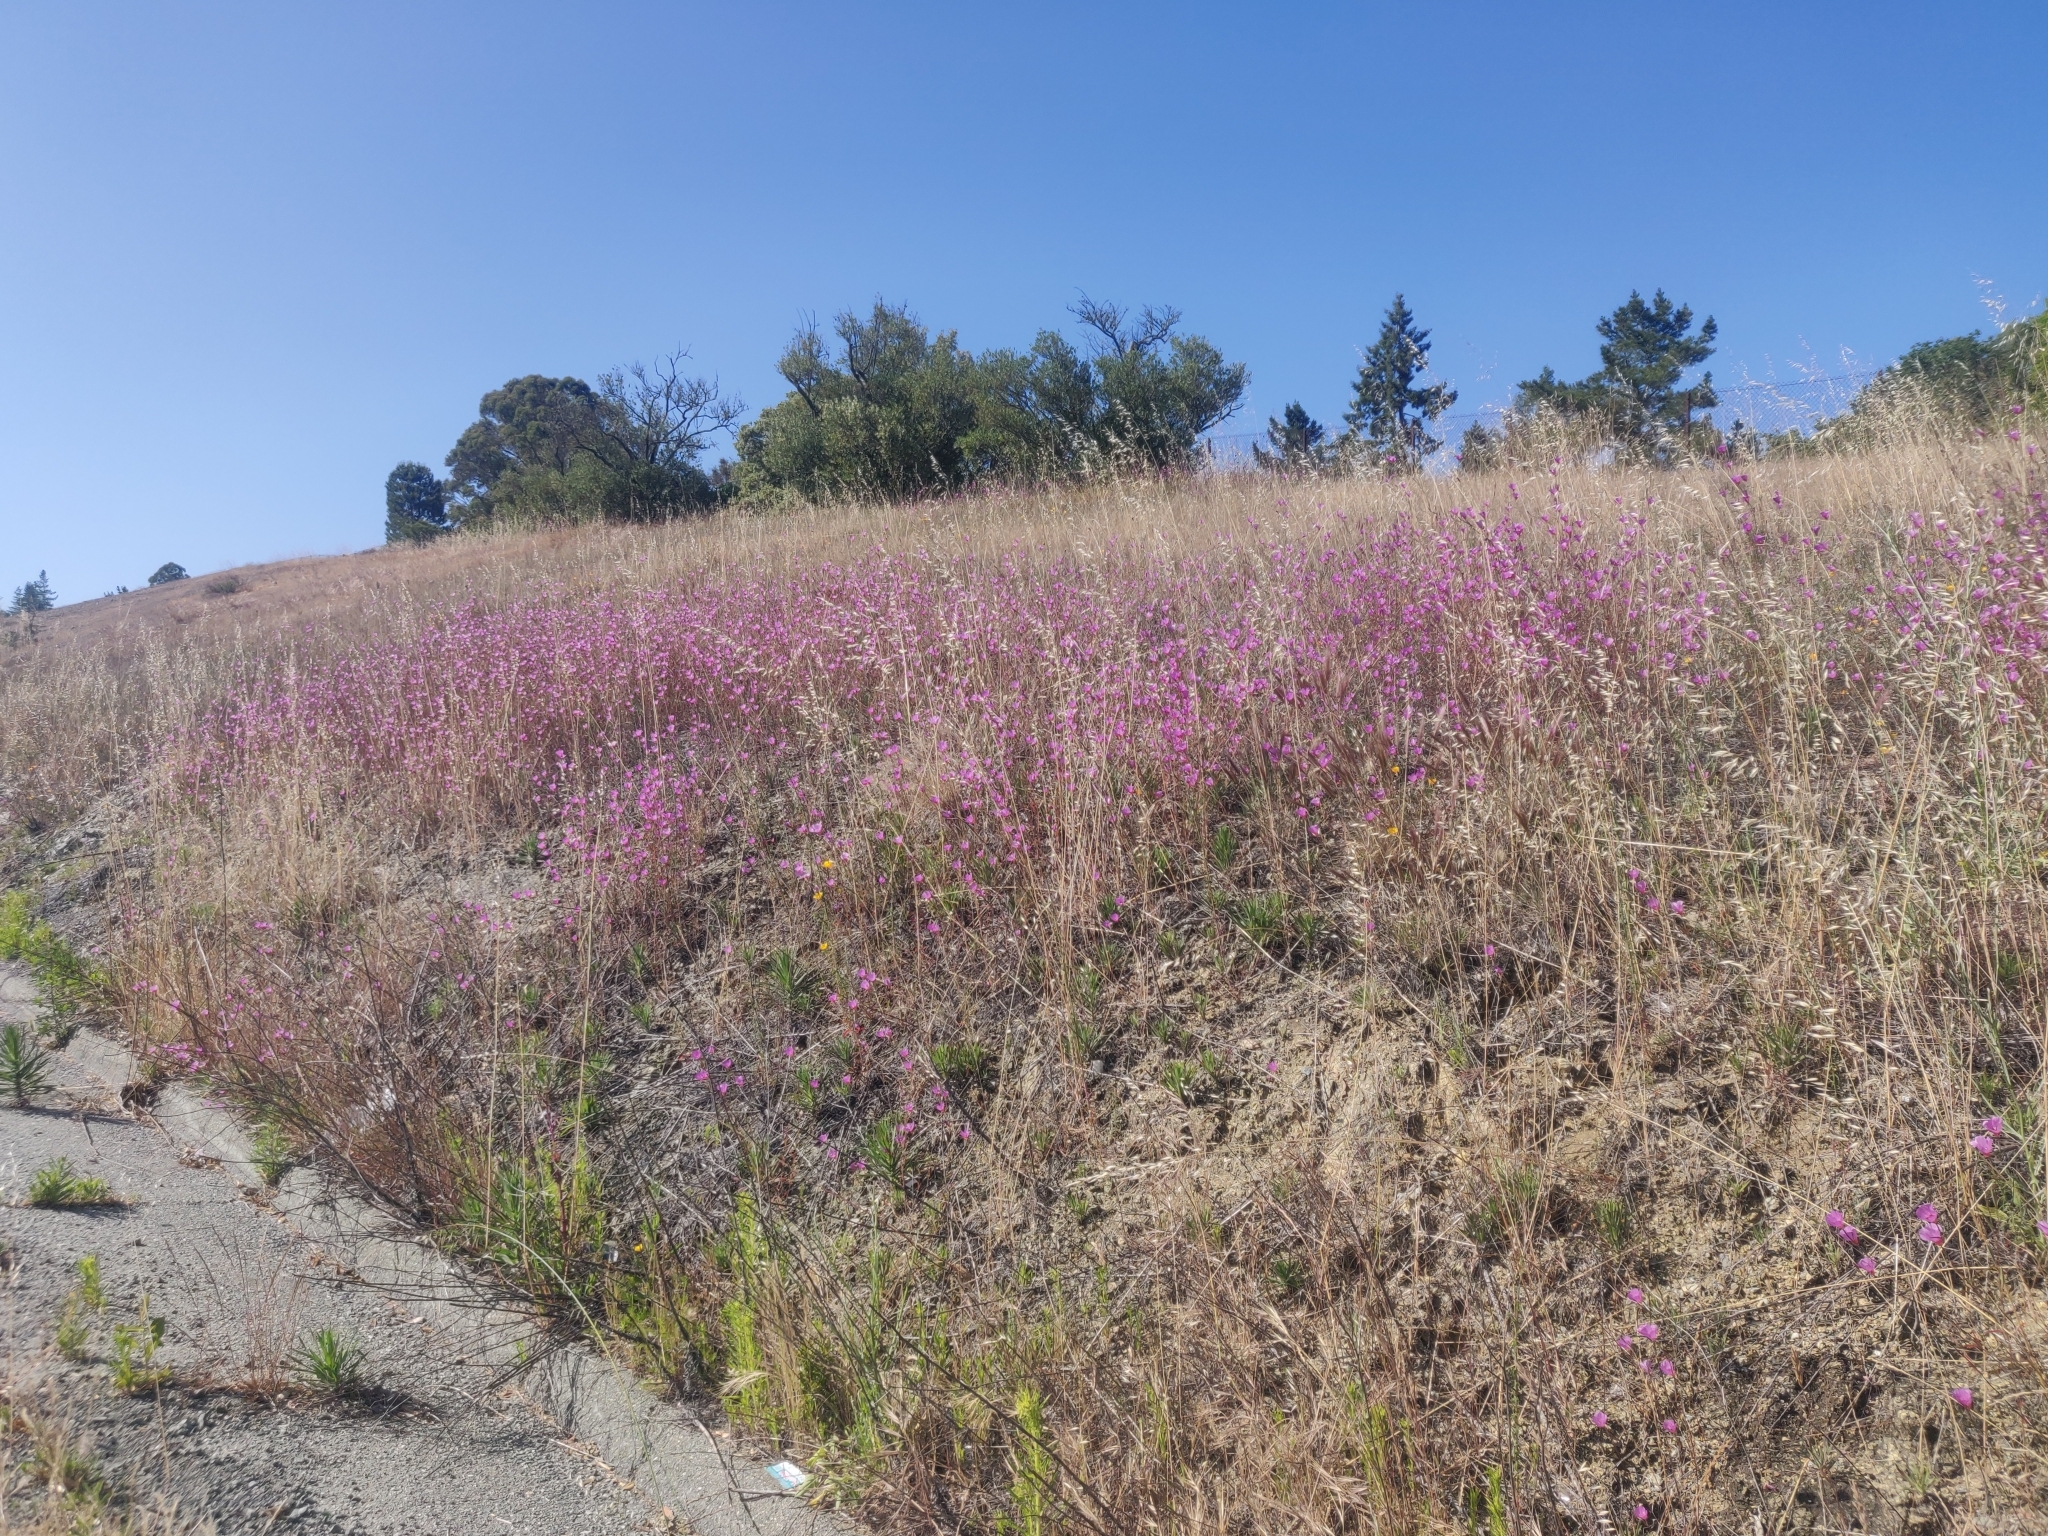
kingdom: Plantae
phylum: Tracheophyta
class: Magnoliopsida
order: Myrtales
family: Onagraceae
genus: Clarkia
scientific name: Clarkia rubicunda
